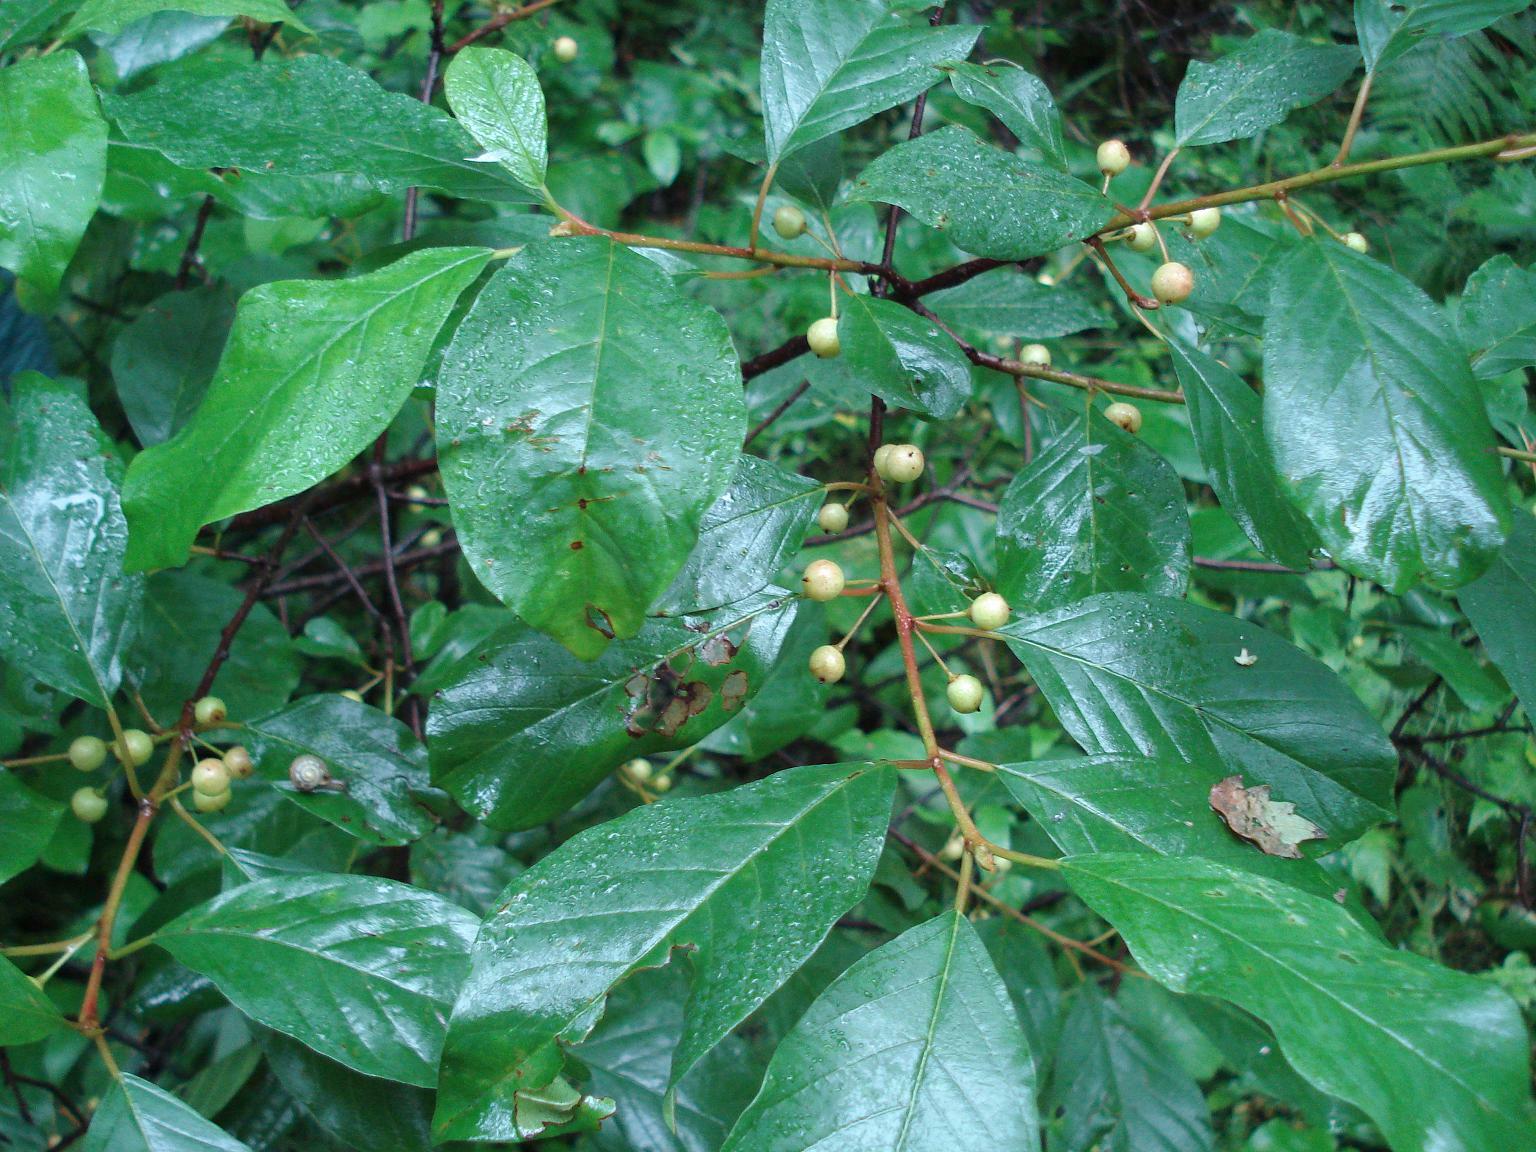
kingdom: Plantae
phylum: Tracheophyta
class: Magnoliopsida
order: Rosales
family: Rhamnaceae
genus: Frangula
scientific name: Frangula alnus
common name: Alder buckthorn
